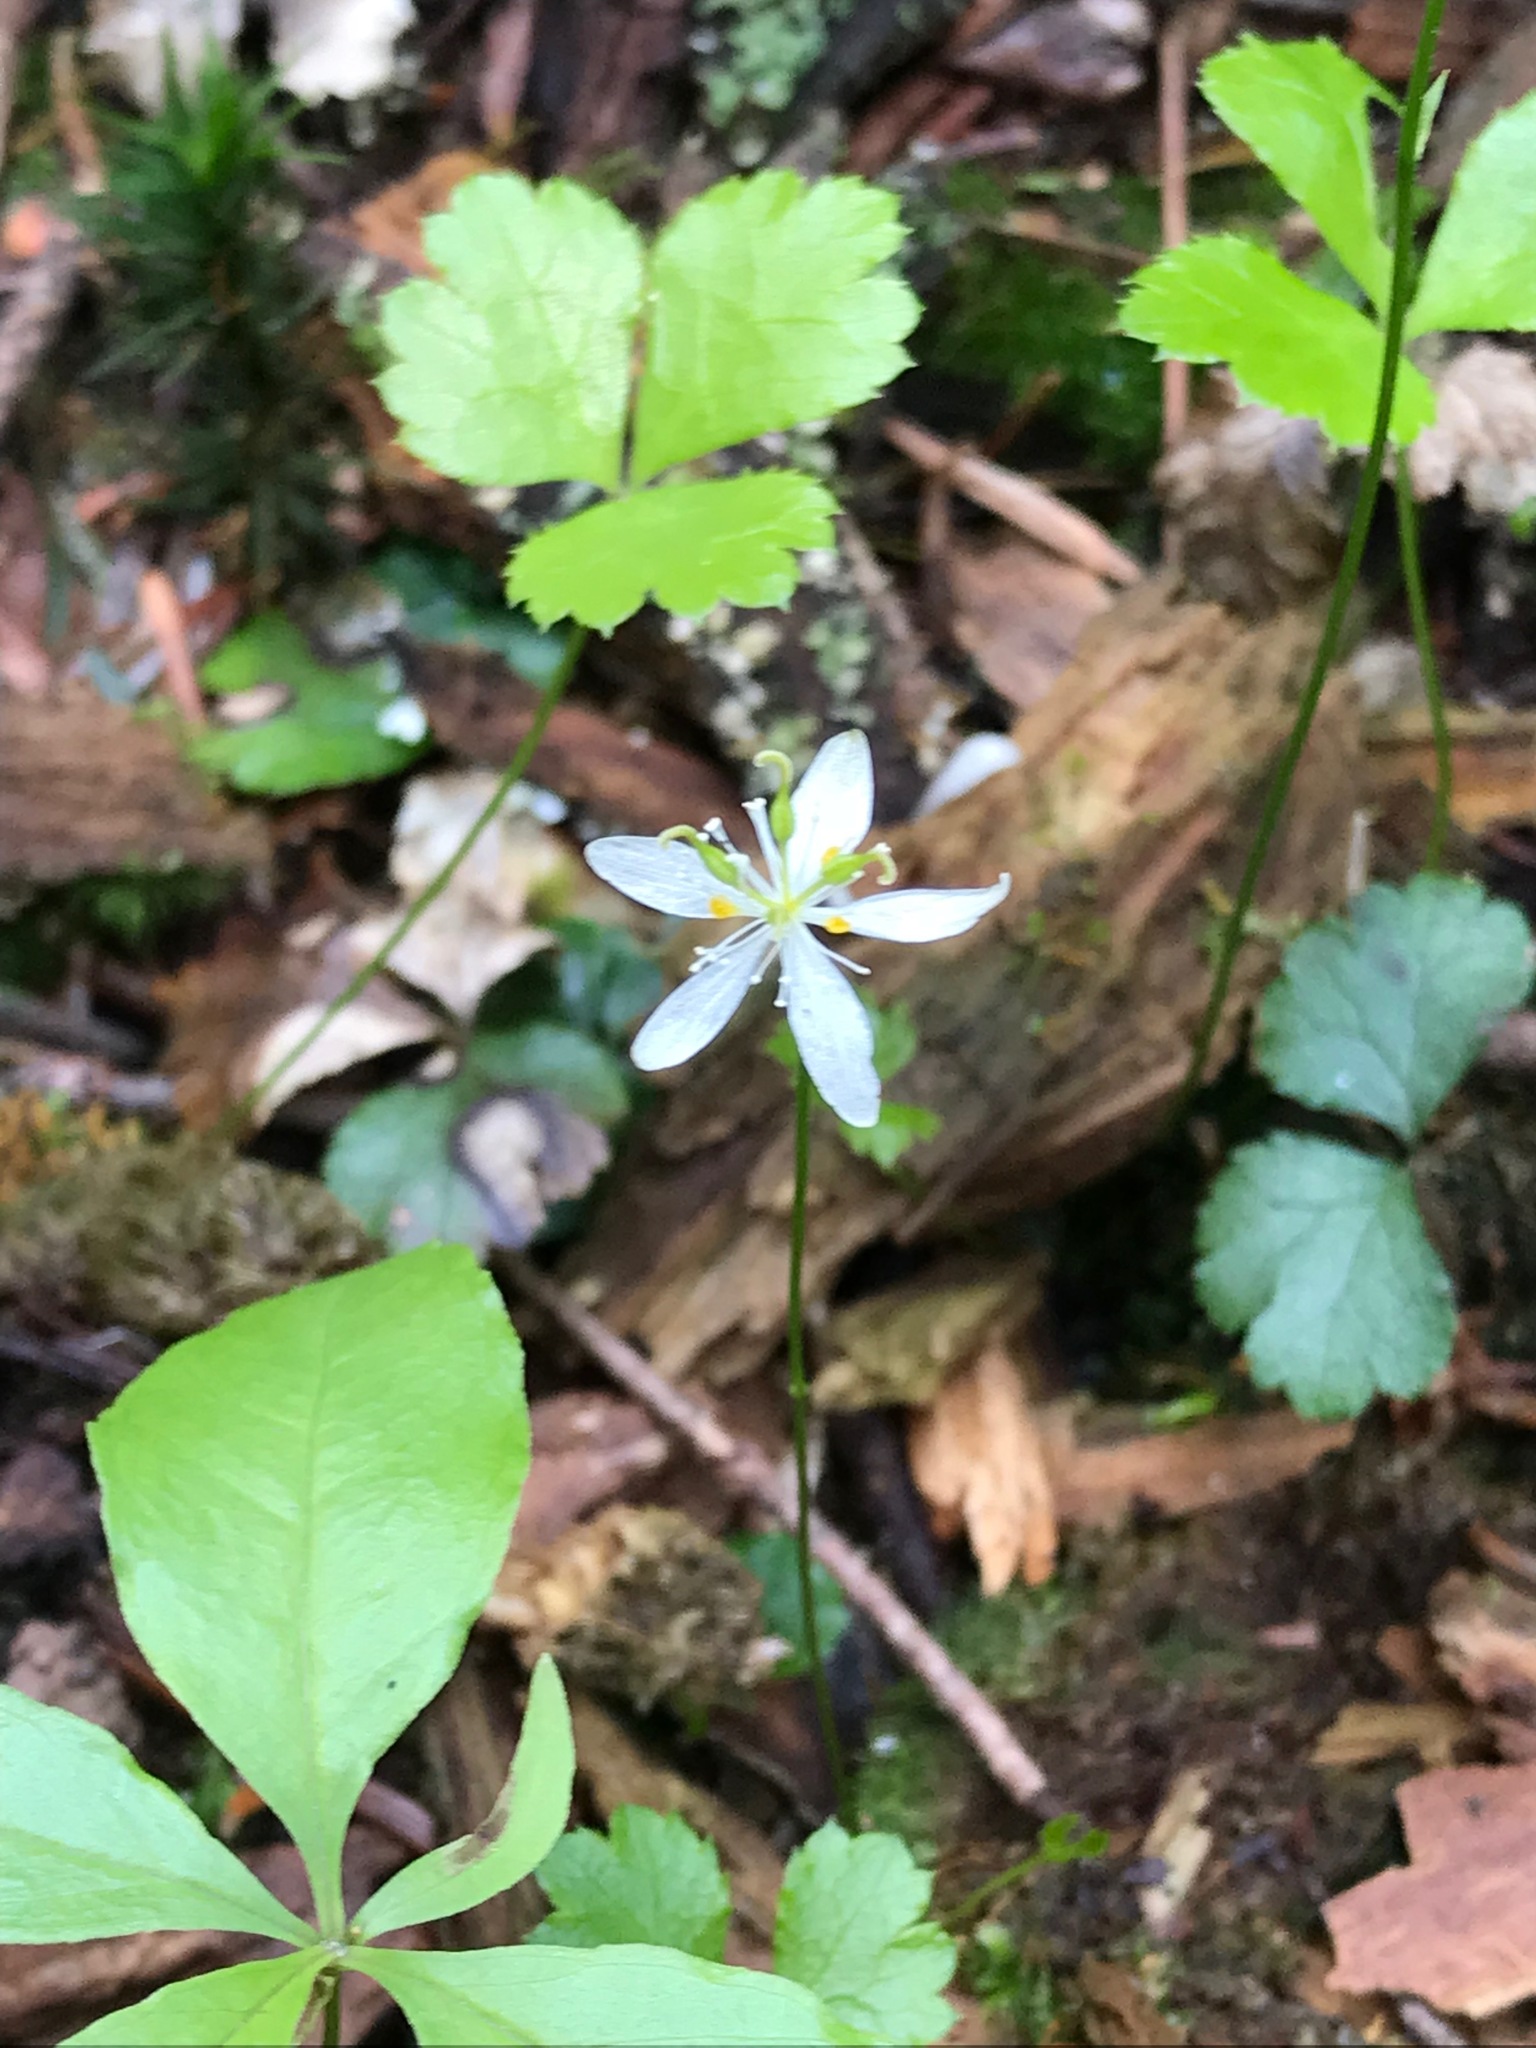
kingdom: Plantae
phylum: Tracheophyta
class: Magnoliopsida
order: Ranunculales
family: Ranunculaceae
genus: Coptis
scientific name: Coptis trifolia
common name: Canker-root
